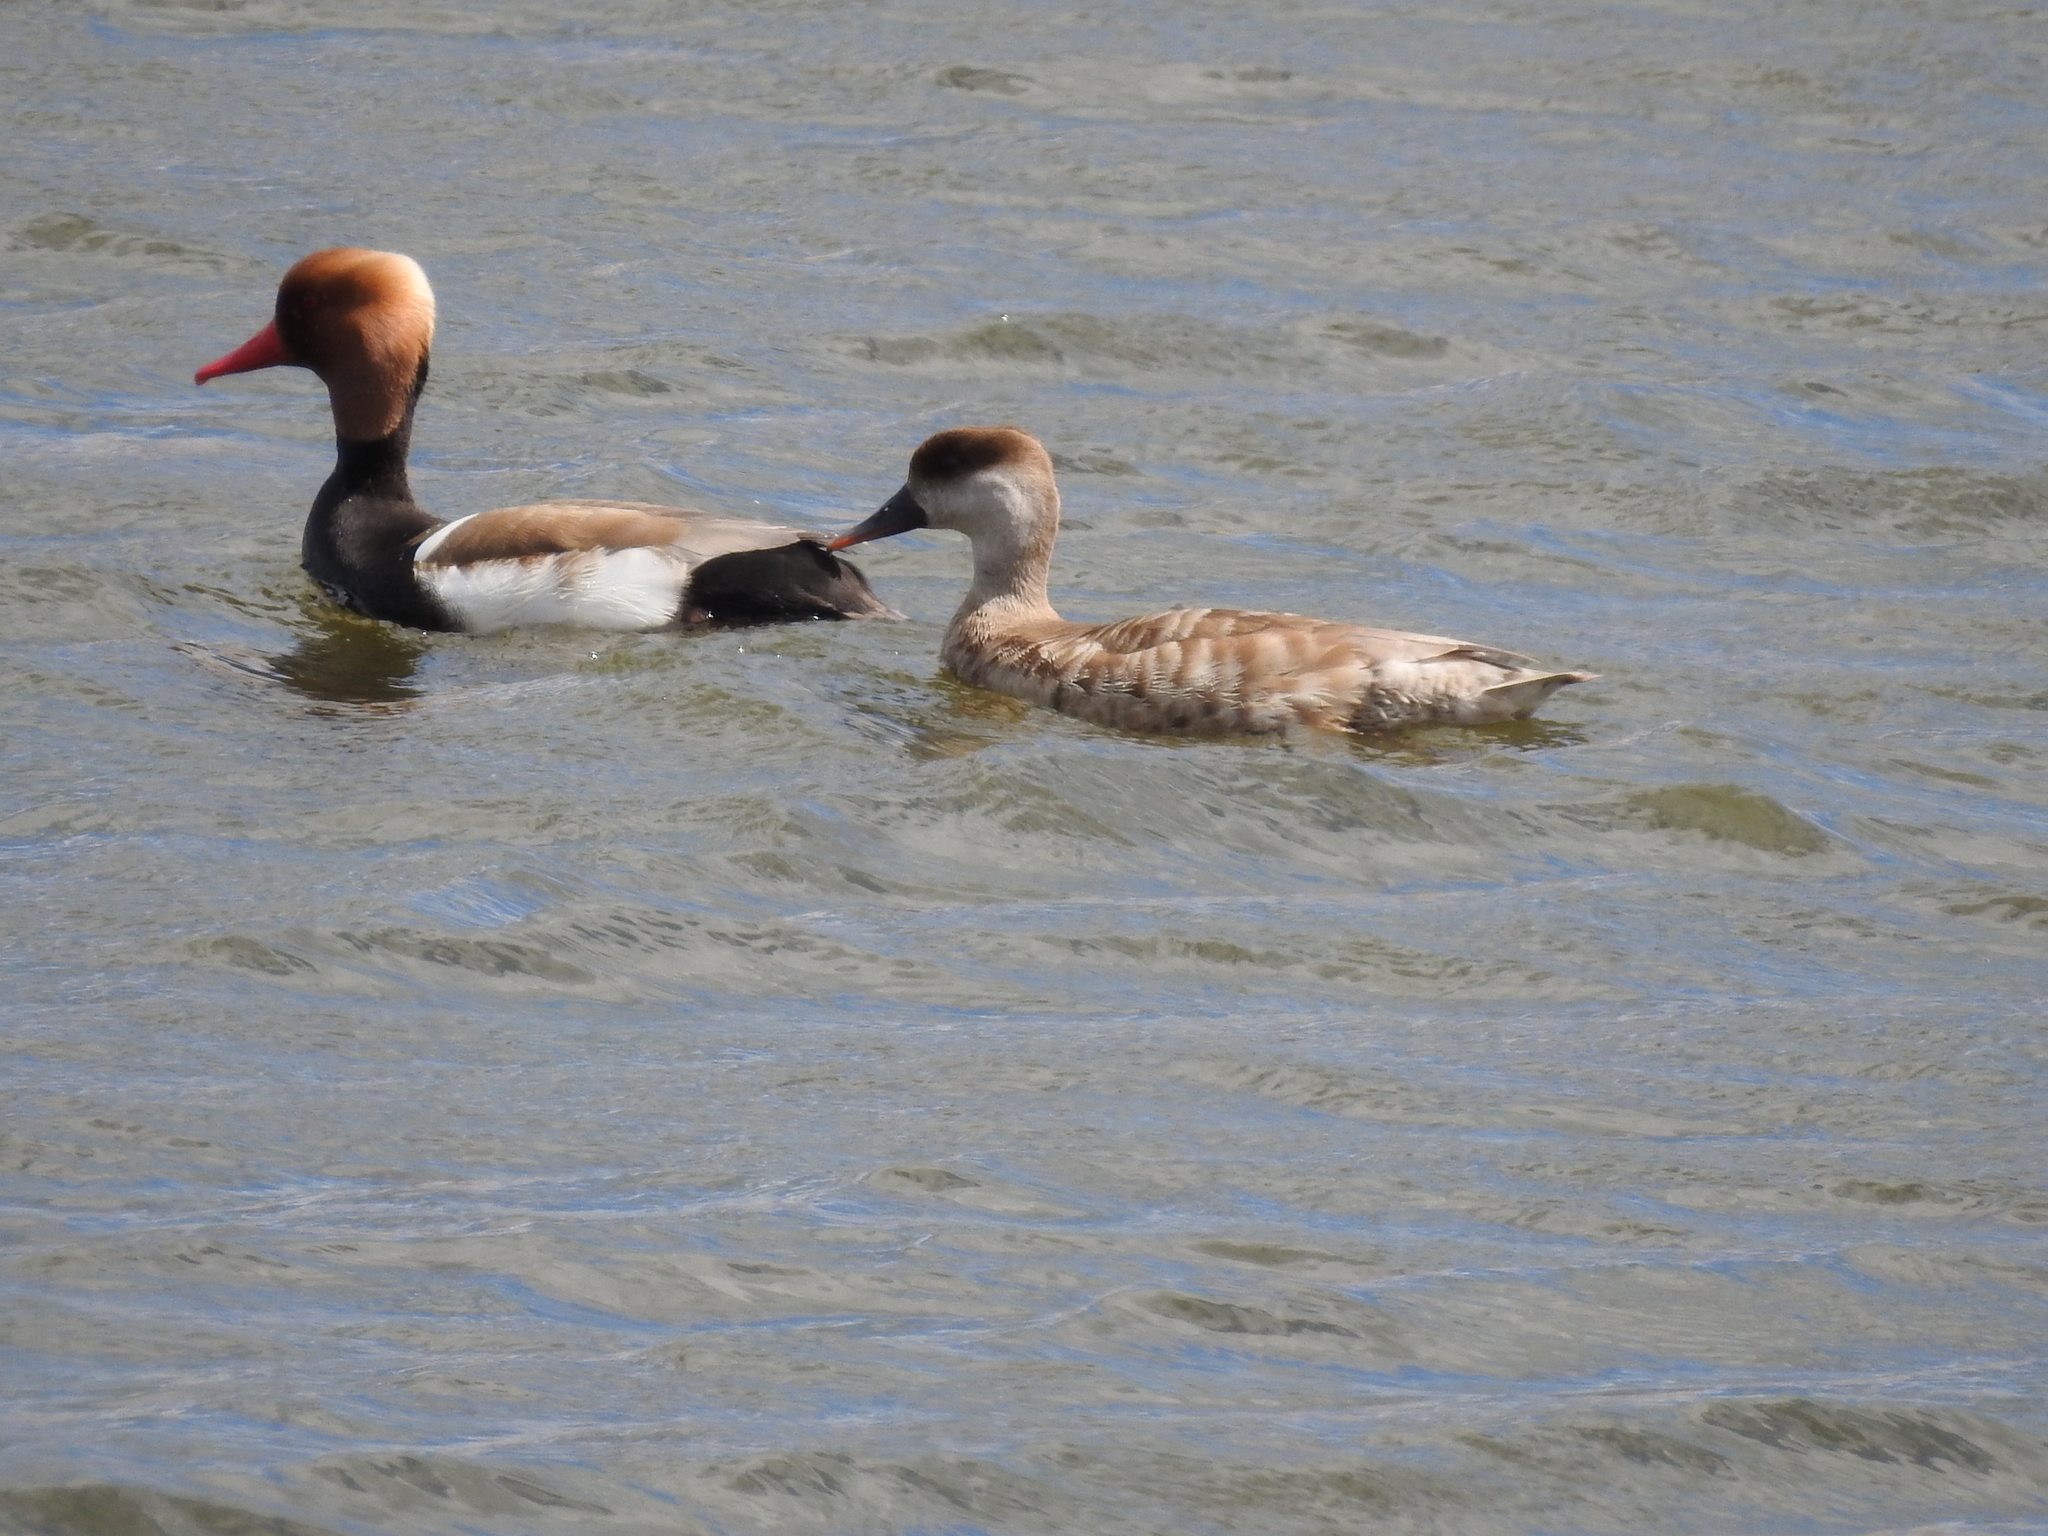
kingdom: Animalia
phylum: Chordata
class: Aves
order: Anseriformes
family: Anatidae
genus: Netta
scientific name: Netta rufina
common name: Red-crested pochard
